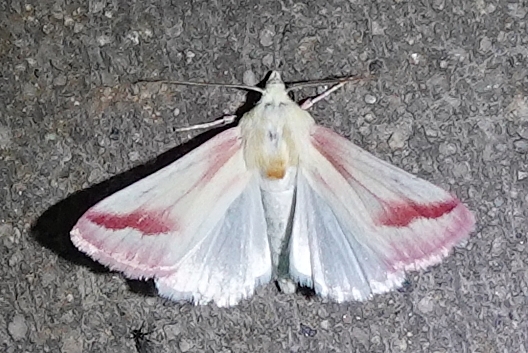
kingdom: Animalia
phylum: Arthropoda
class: Insecta
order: Lepidoptera
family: Noctuidae
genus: Schinia
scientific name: Schinia gaurae
